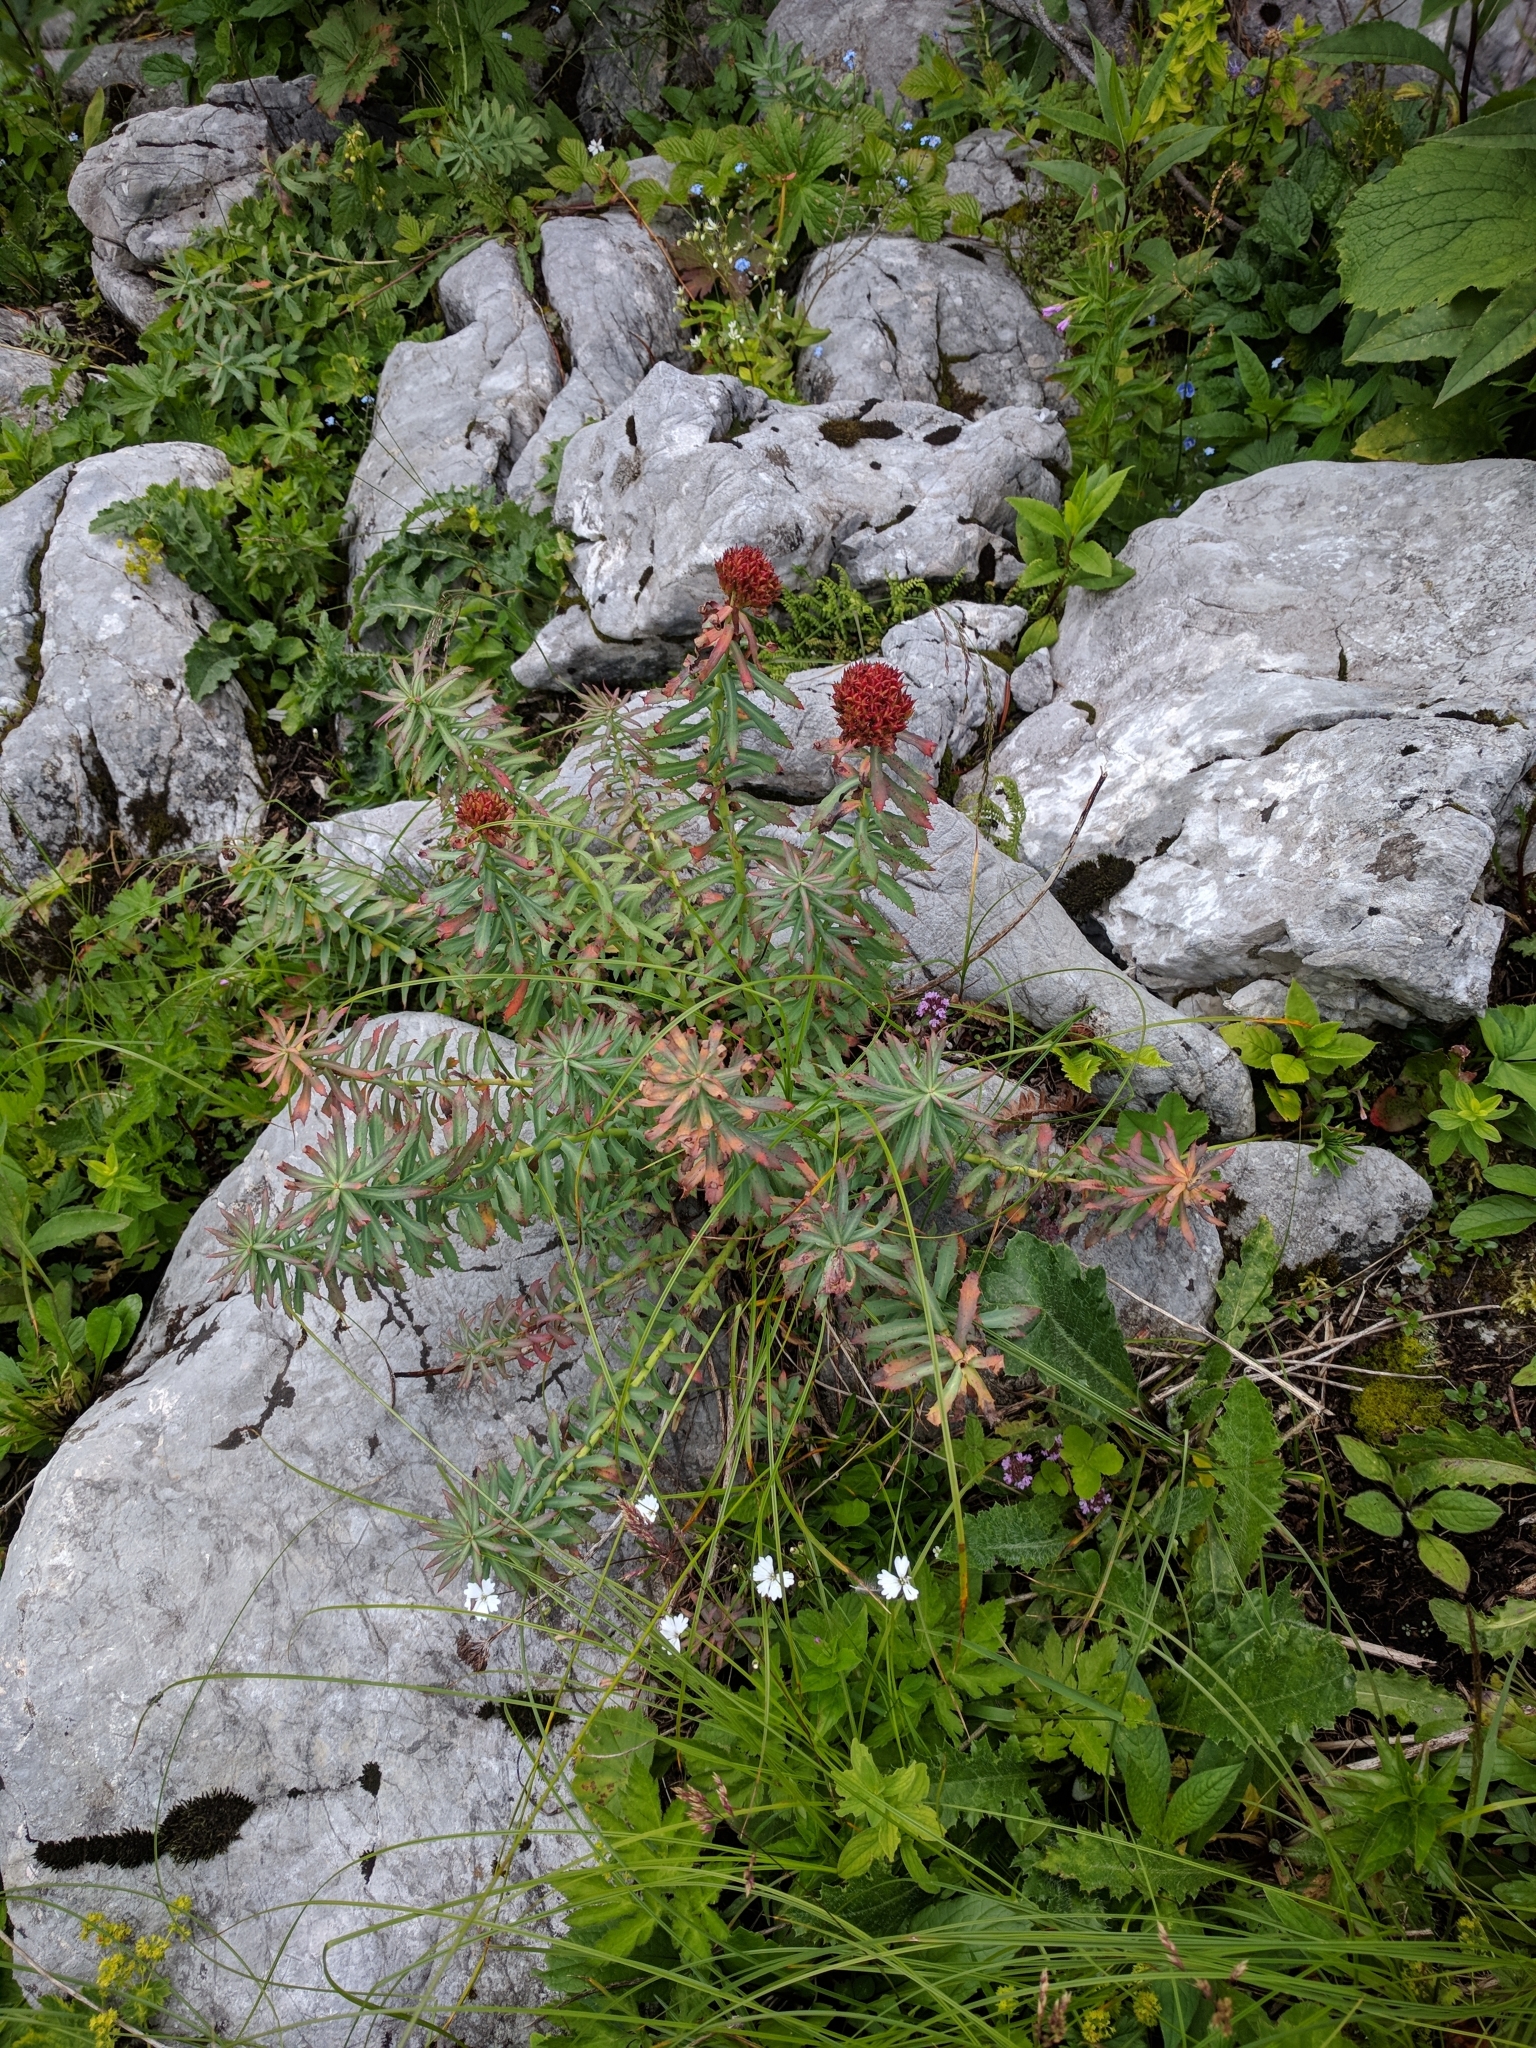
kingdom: Plantae
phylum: Tracheophyta
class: Magnoliopsida
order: Saxifragales
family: Crassulaceae
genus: Rhodiola
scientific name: Rhodiola rosea
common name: Roseroot
